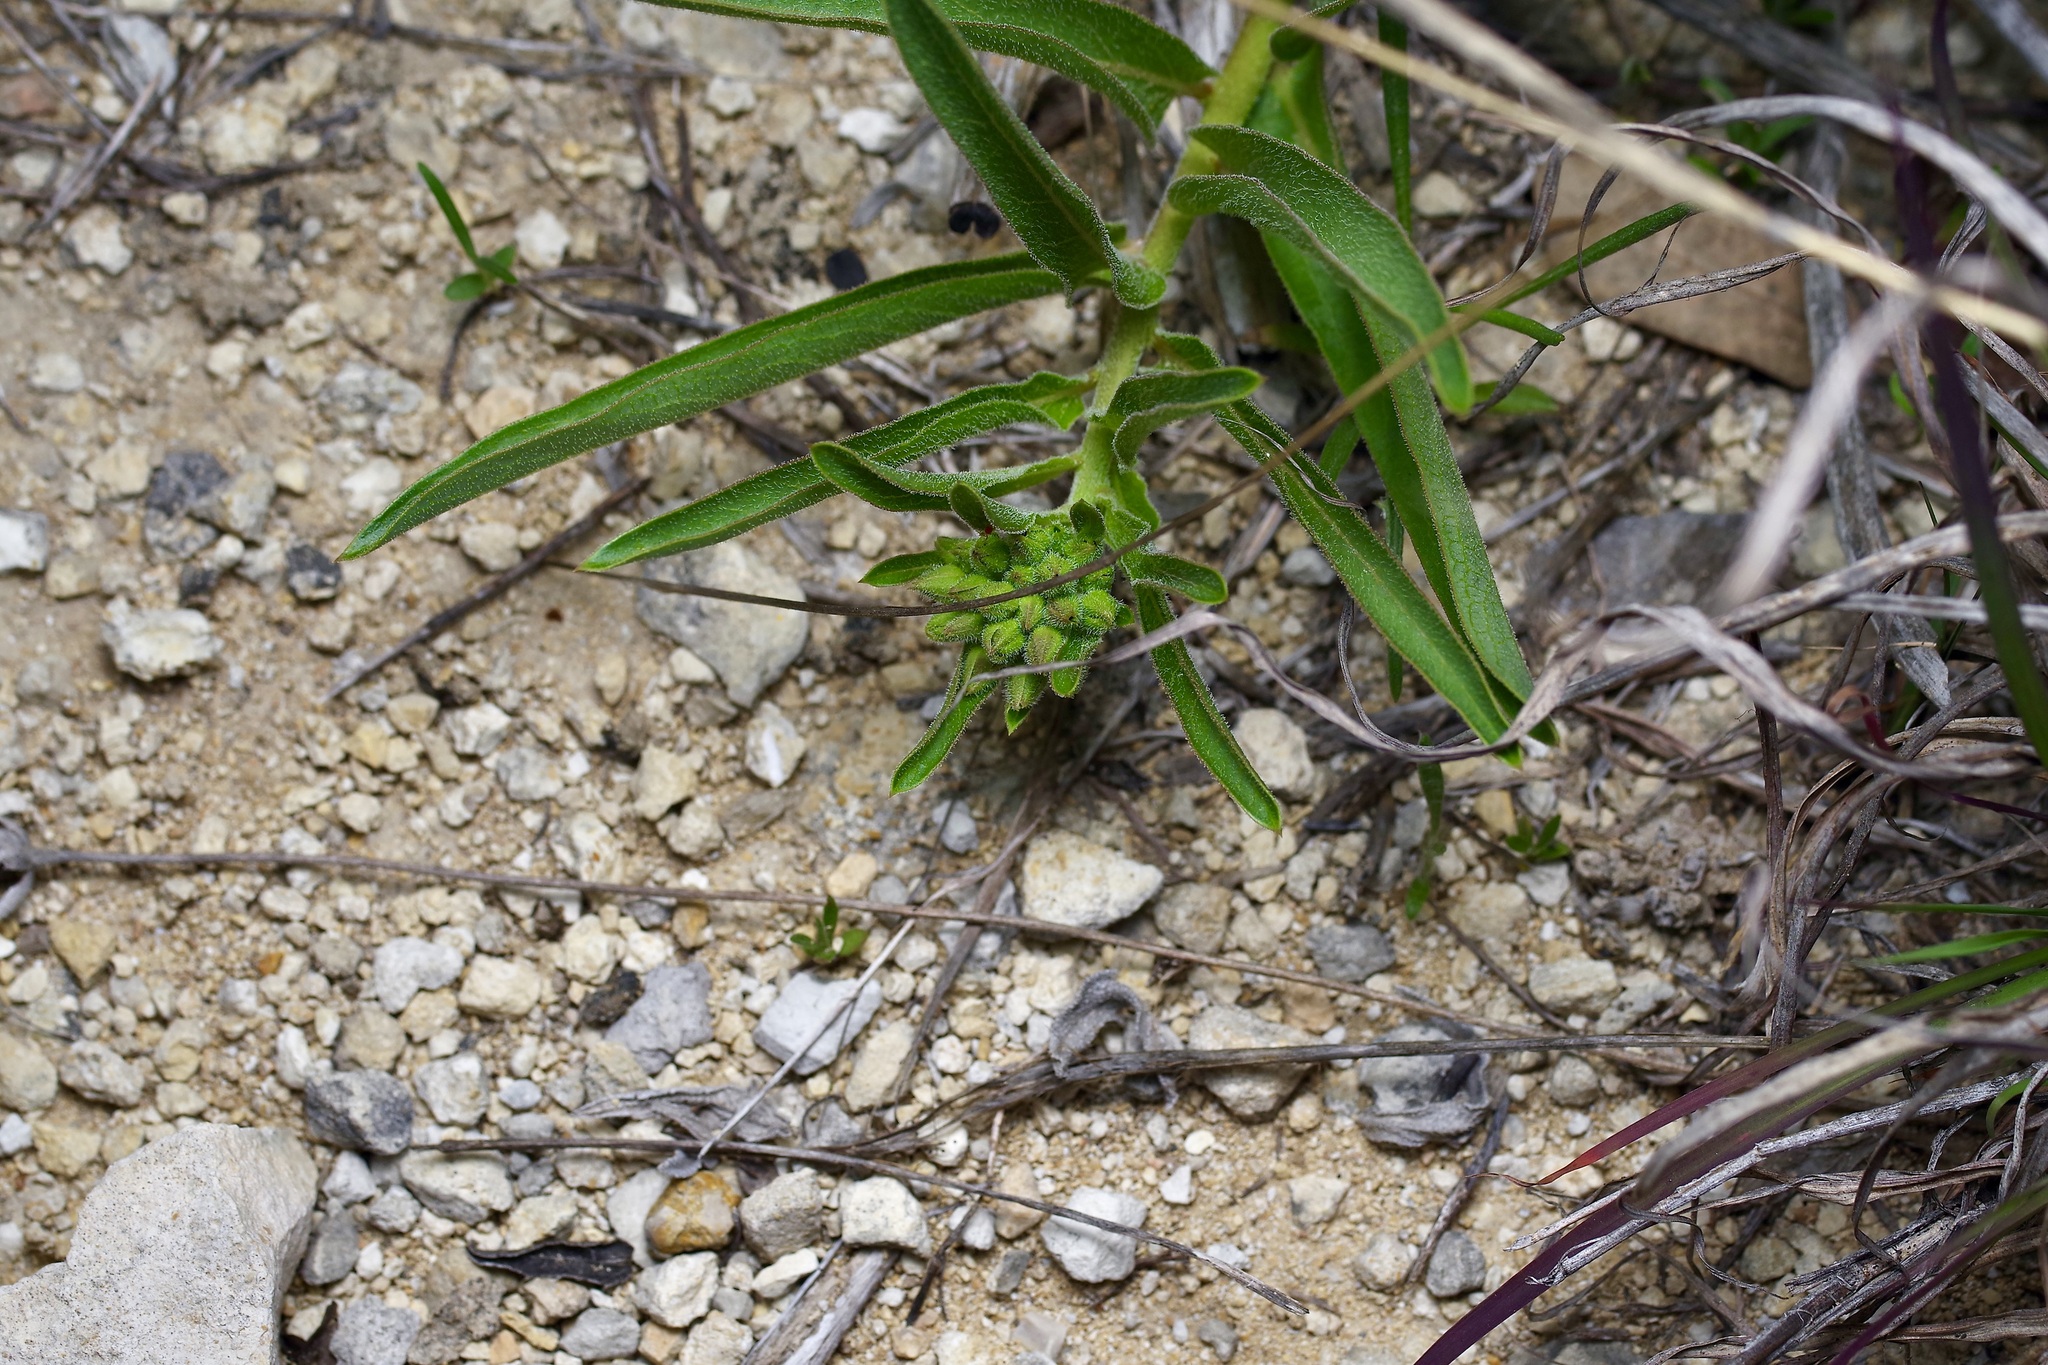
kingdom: Plantae
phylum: Tracheophyta
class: Magnoliopsida
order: Gentianales
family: Apocynaceae
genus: Asclepias
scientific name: Asclepias asperula
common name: Antelope horns
